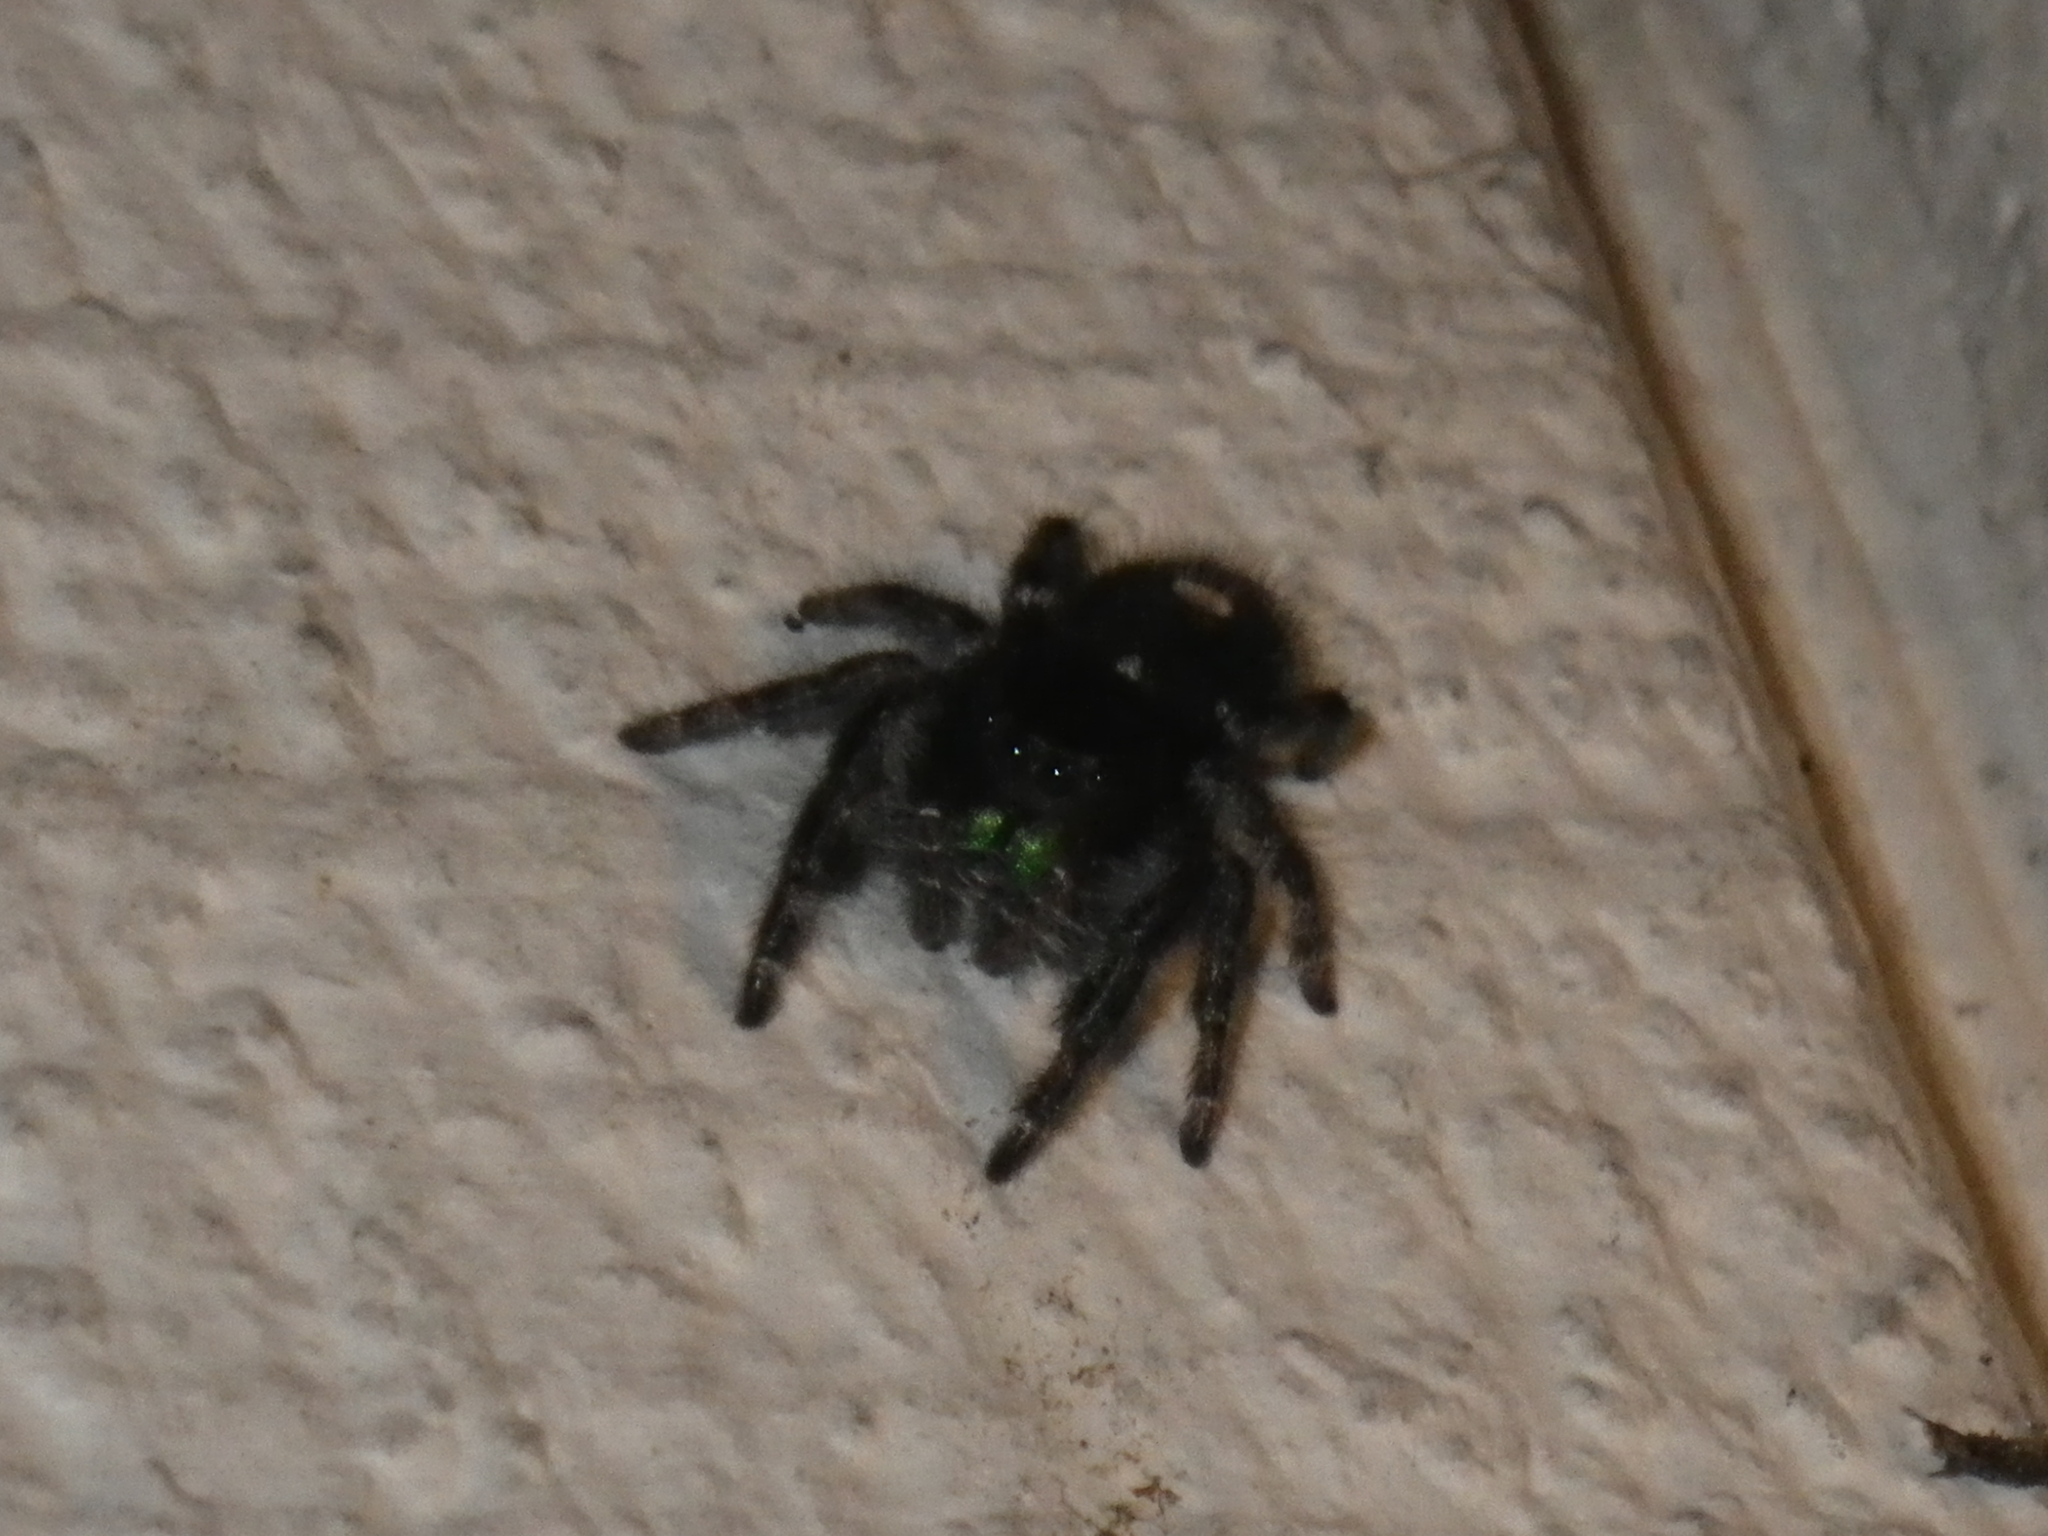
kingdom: Animalia
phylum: Arthropoda
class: Arachnida
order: Araneae
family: Salticidae
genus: Phidippus
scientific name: Phidippus audax
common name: Bold jumper
